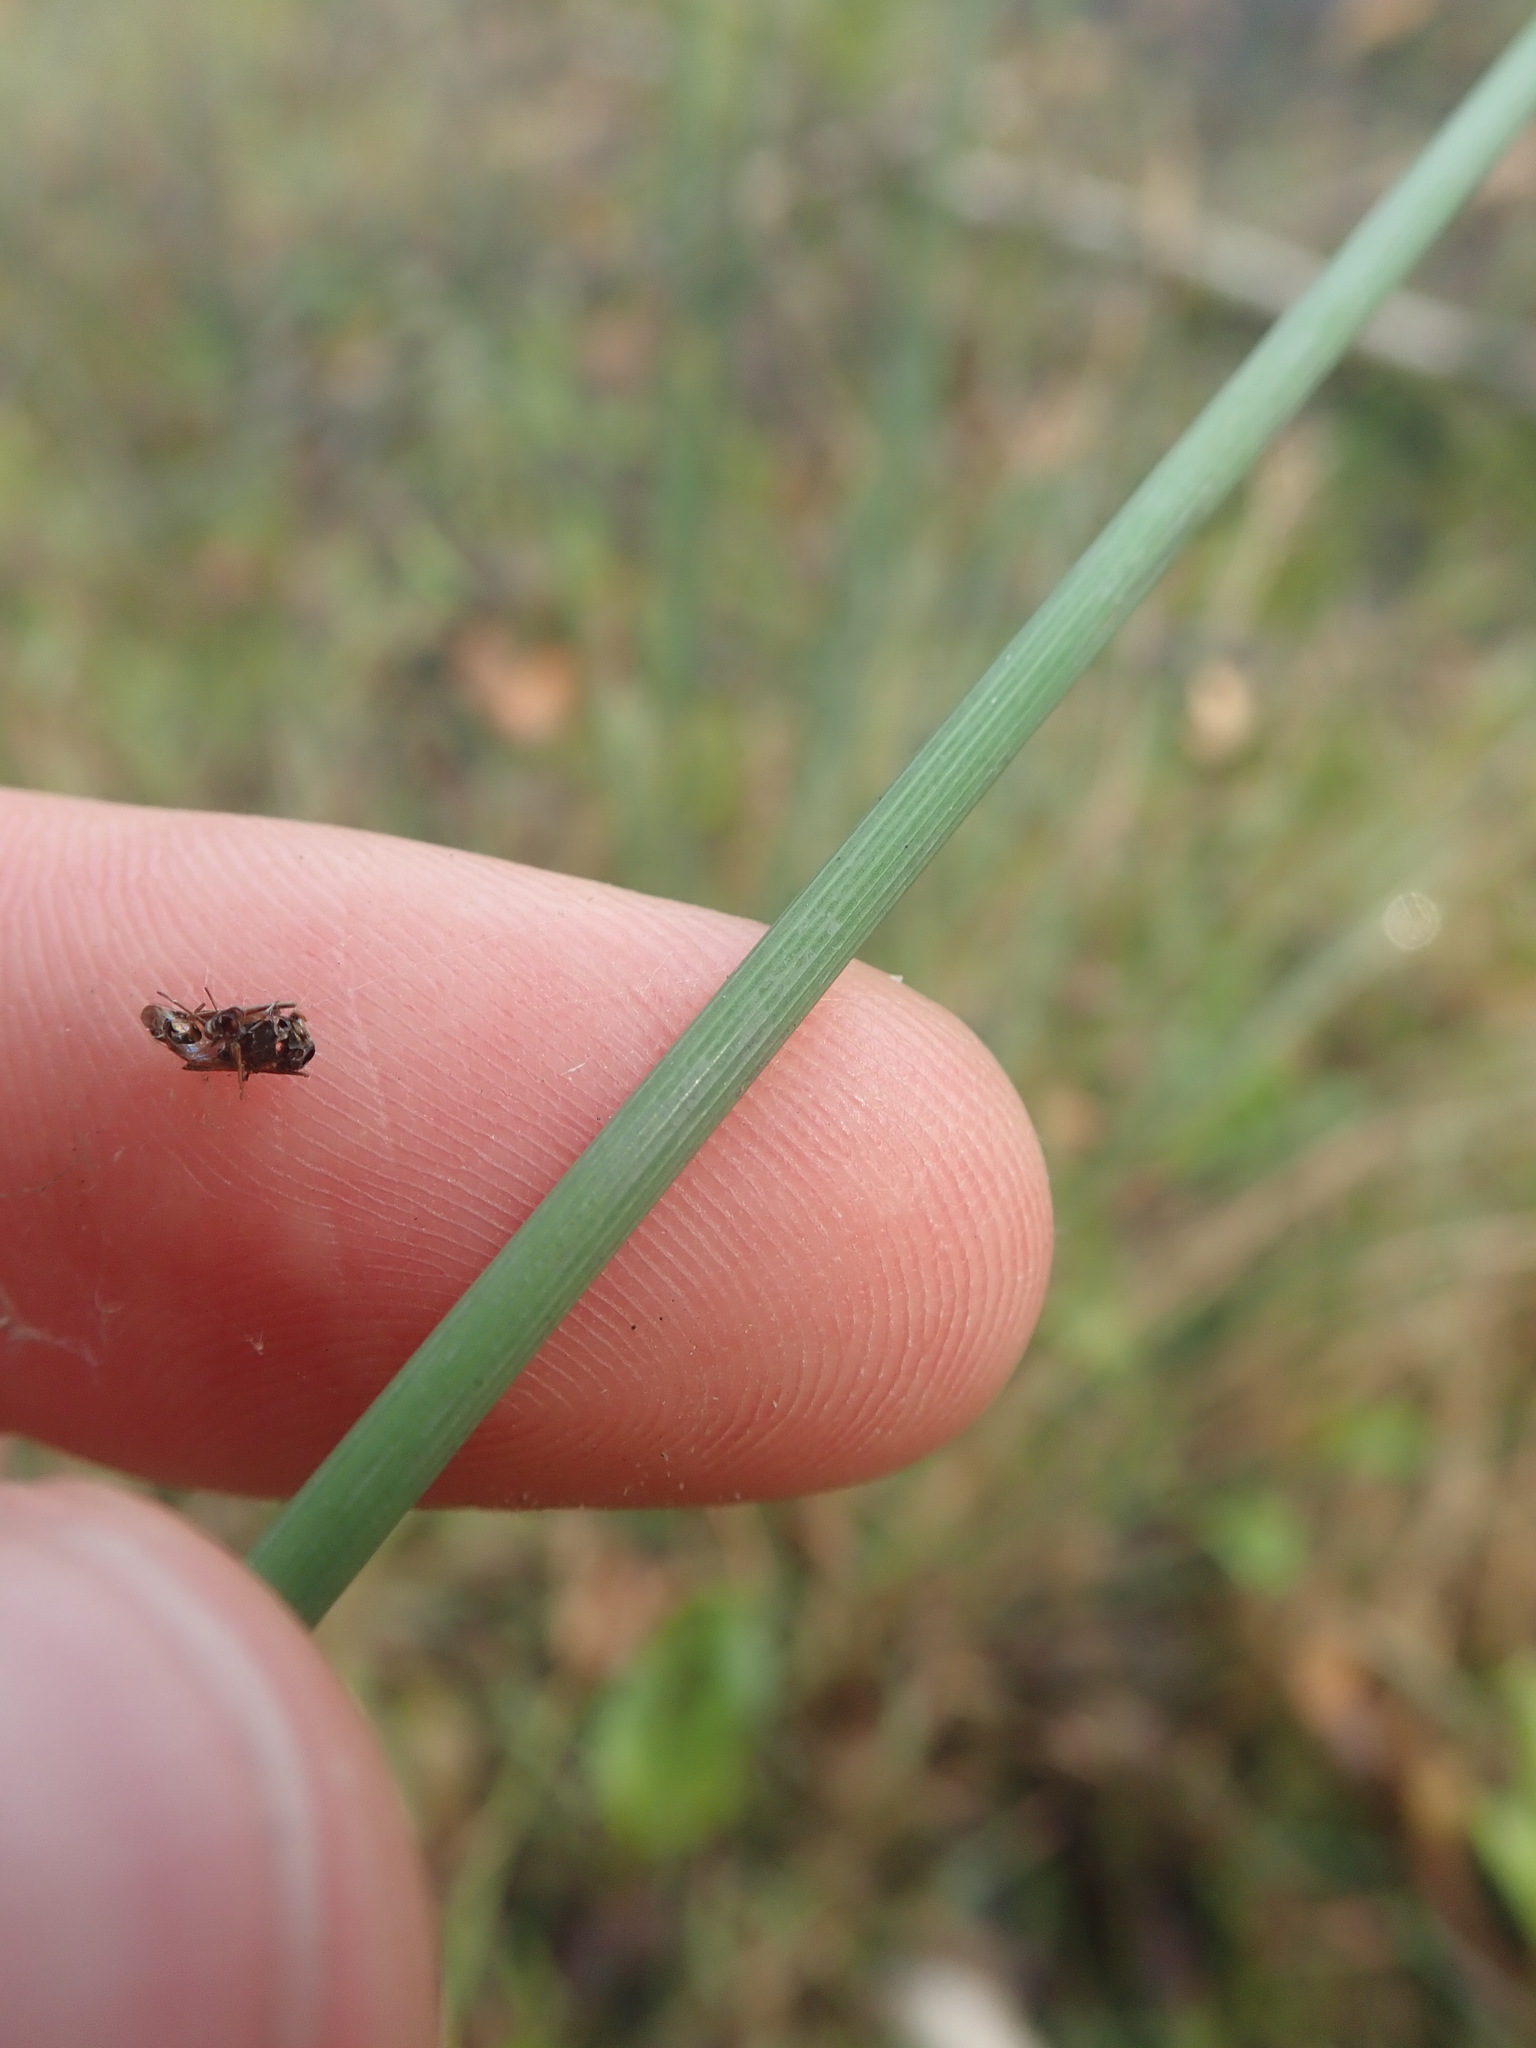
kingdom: Plantae
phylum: Tracheophyta
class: Liliopsida
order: Poales
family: Juncaceae
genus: Juncus
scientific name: Juncus inflexus
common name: Hard rush
